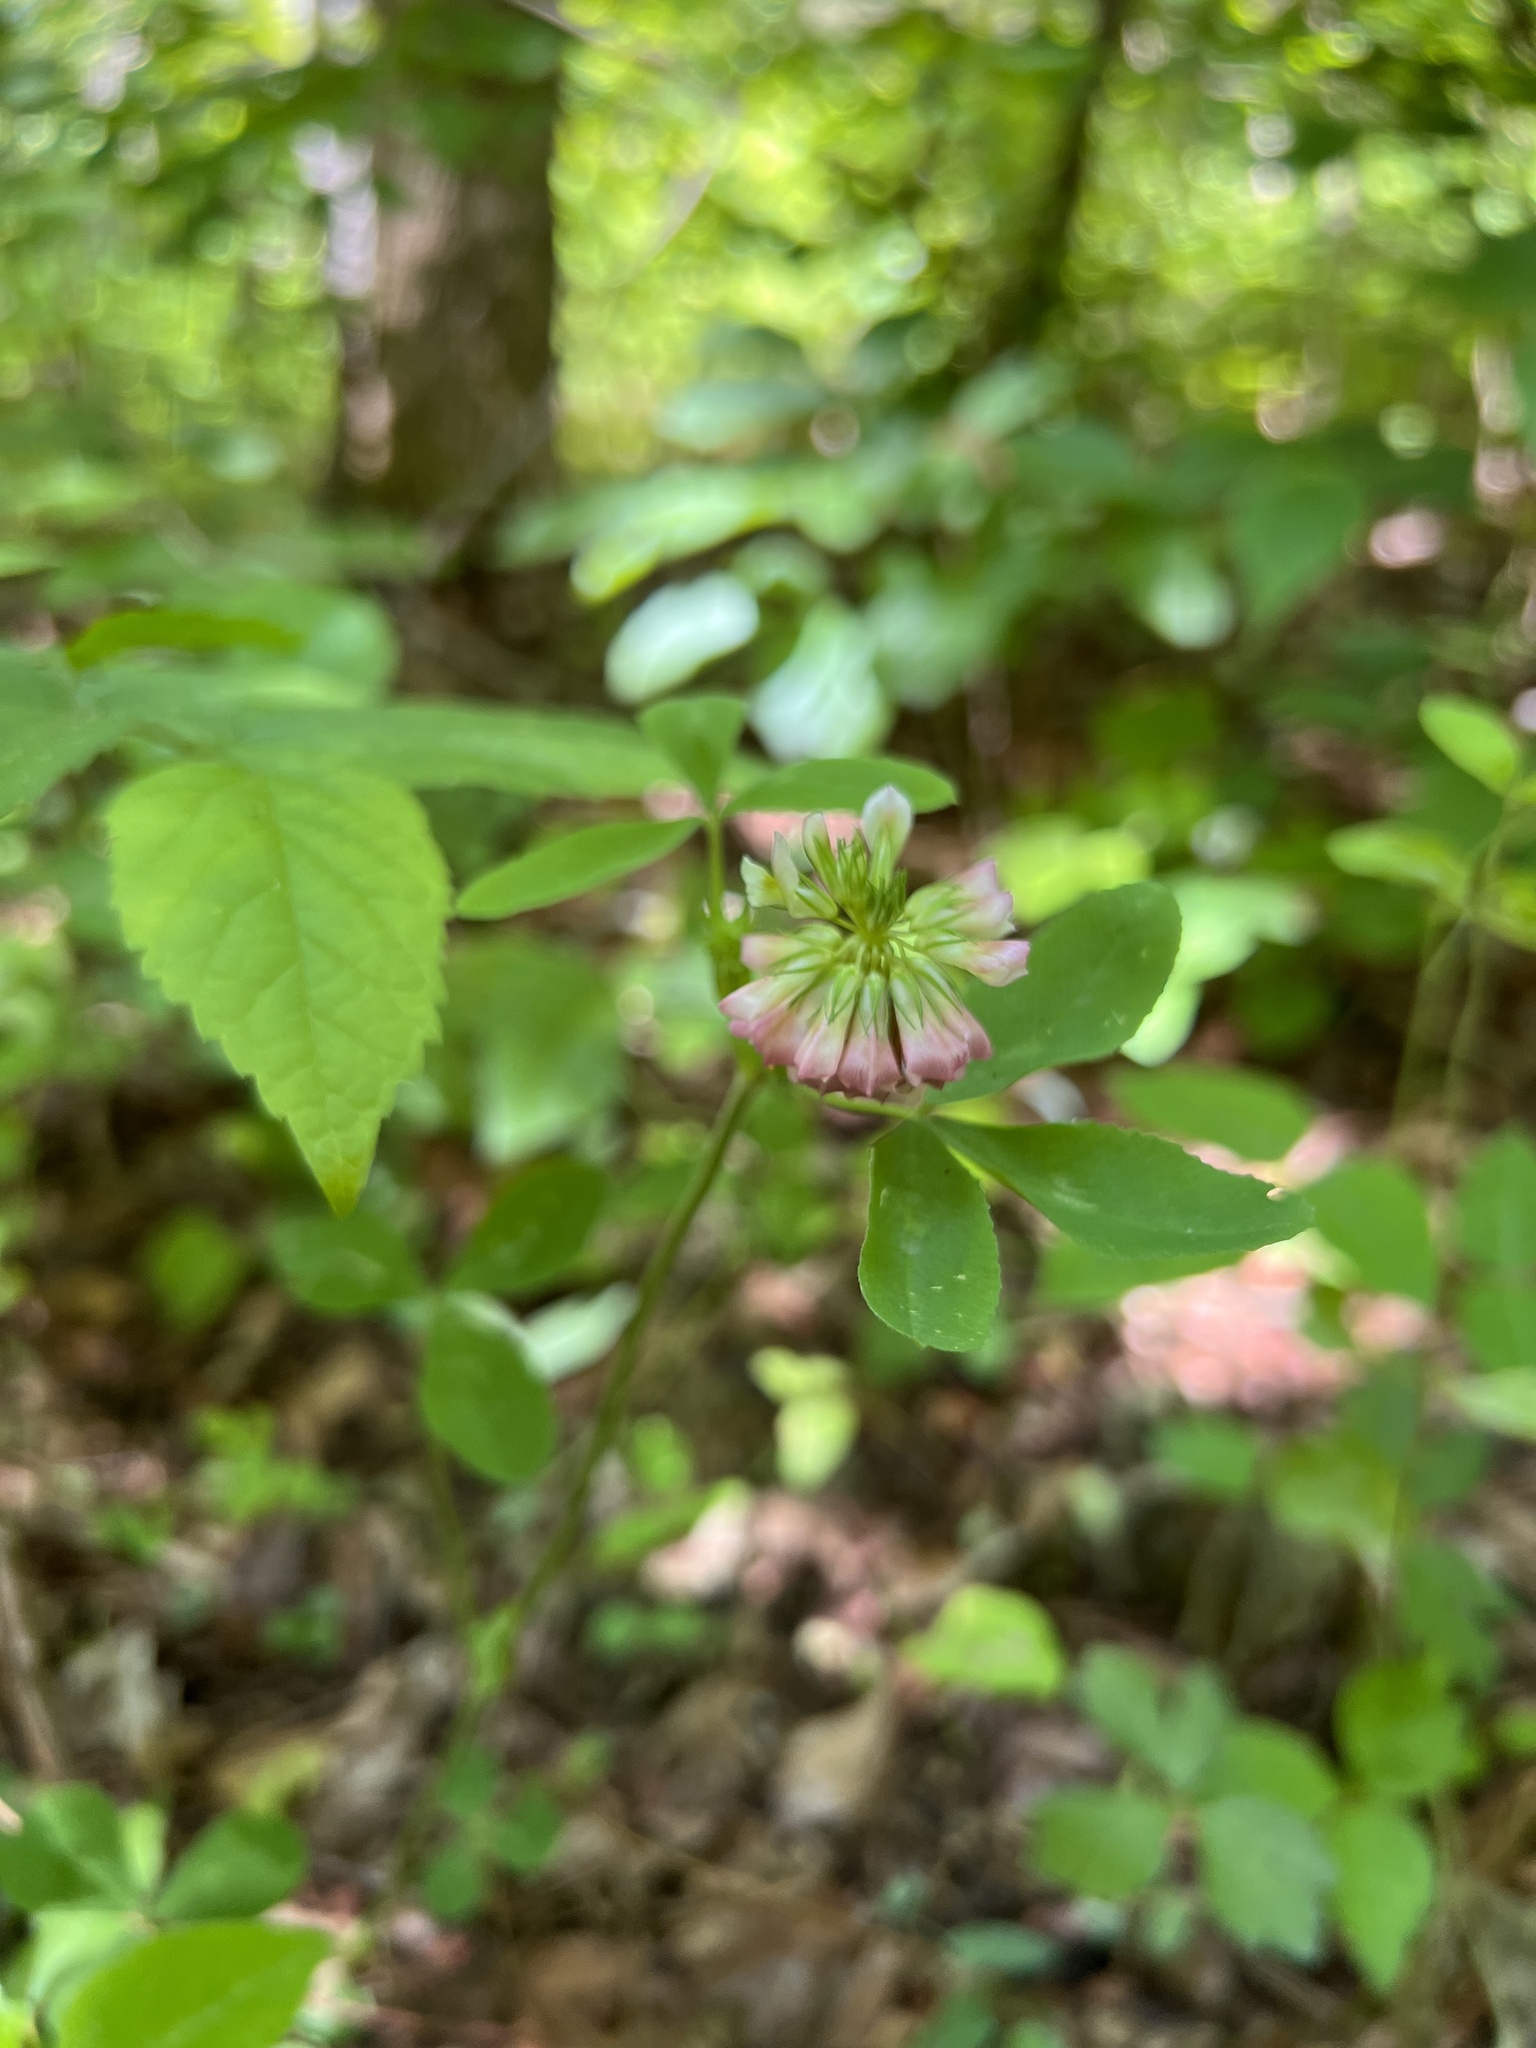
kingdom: Plantae
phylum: Tracheophyta
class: Magnoliopsida
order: Fabales
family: Fabaceae
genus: Trifolium
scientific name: Trifolium reflexum
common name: Buffalo clover
